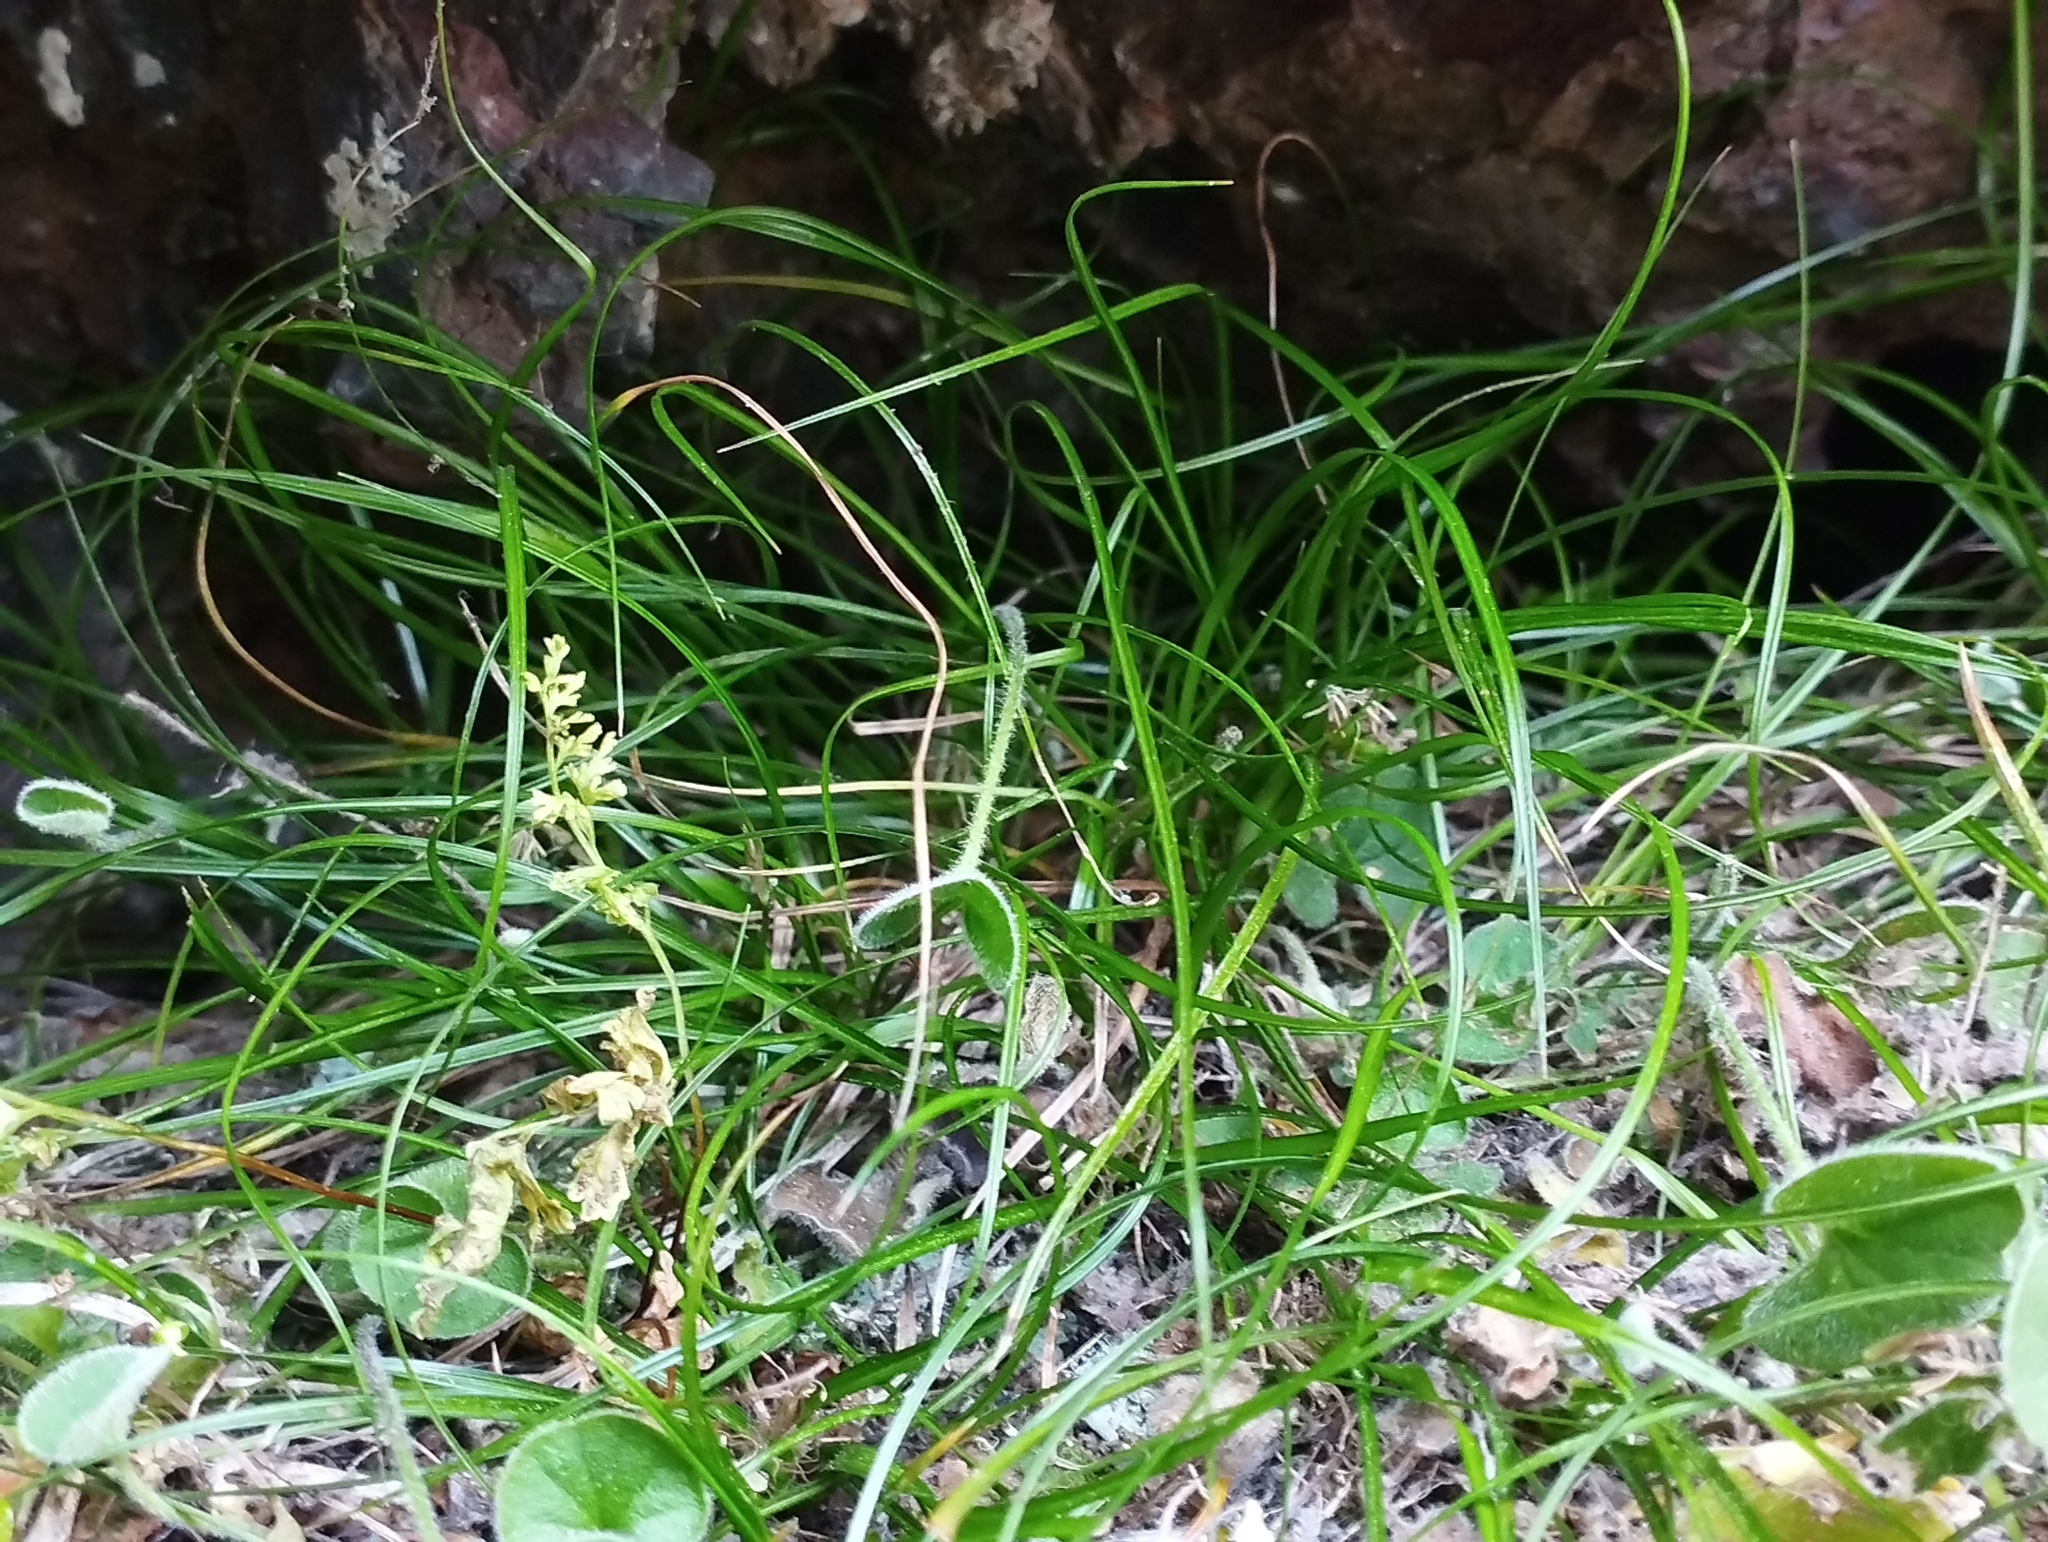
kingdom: Plantae
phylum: Tracheophyta
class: Liliopsida
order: Poales
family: Cyperaceae
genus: Carex
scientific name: Carex inopinata
